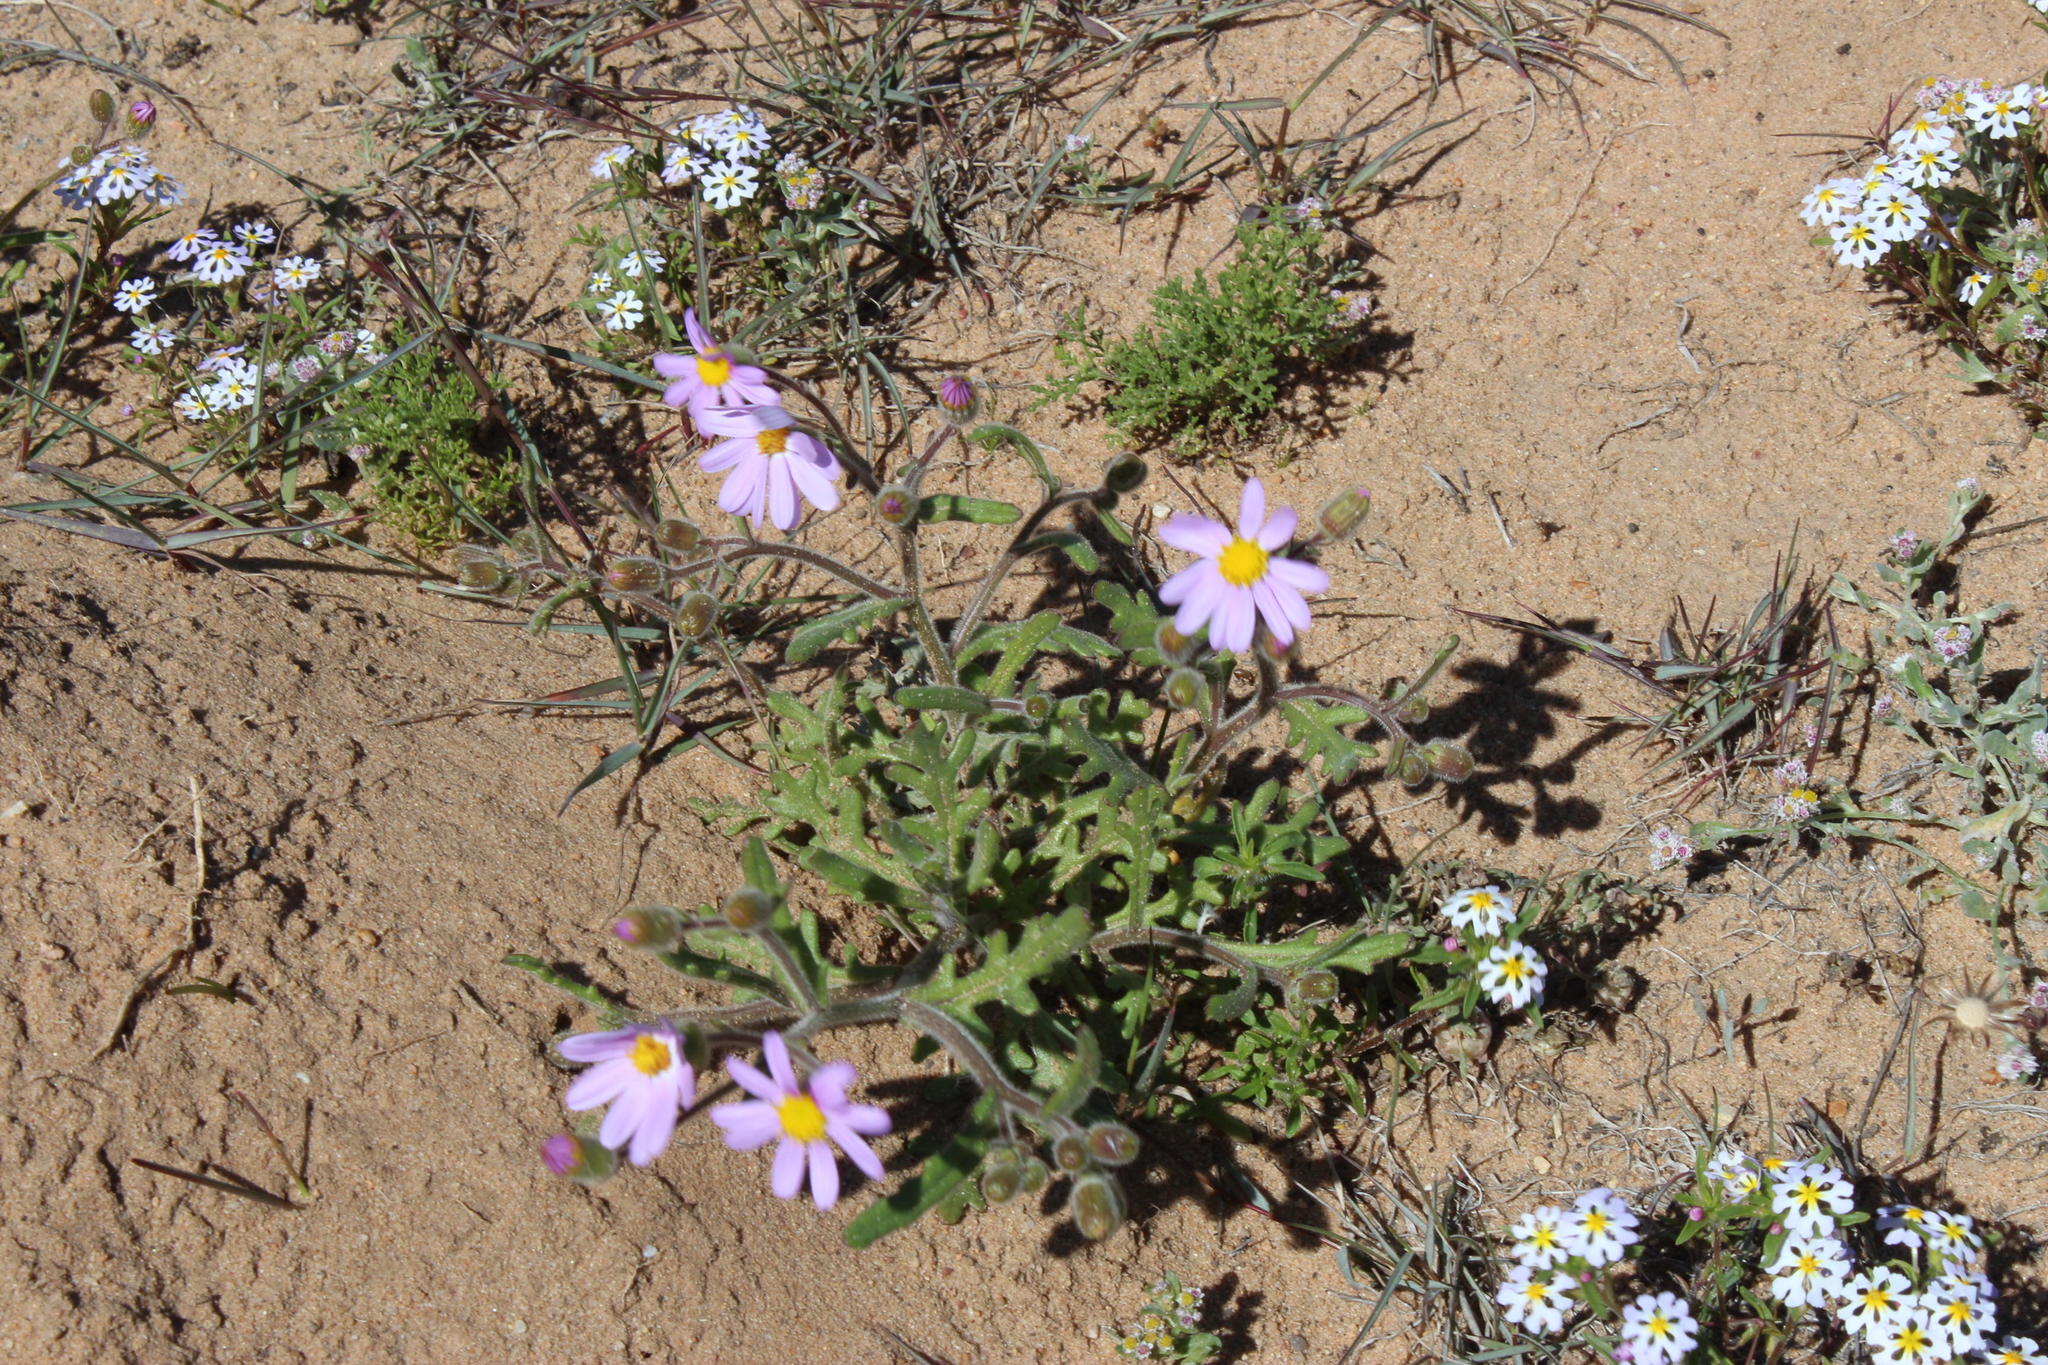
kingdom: Plantae
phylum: Tracheophyta
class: Magnoliopsida
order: Asterales
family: Asteraceae
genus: Senecio
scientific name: Senecio arenarius
